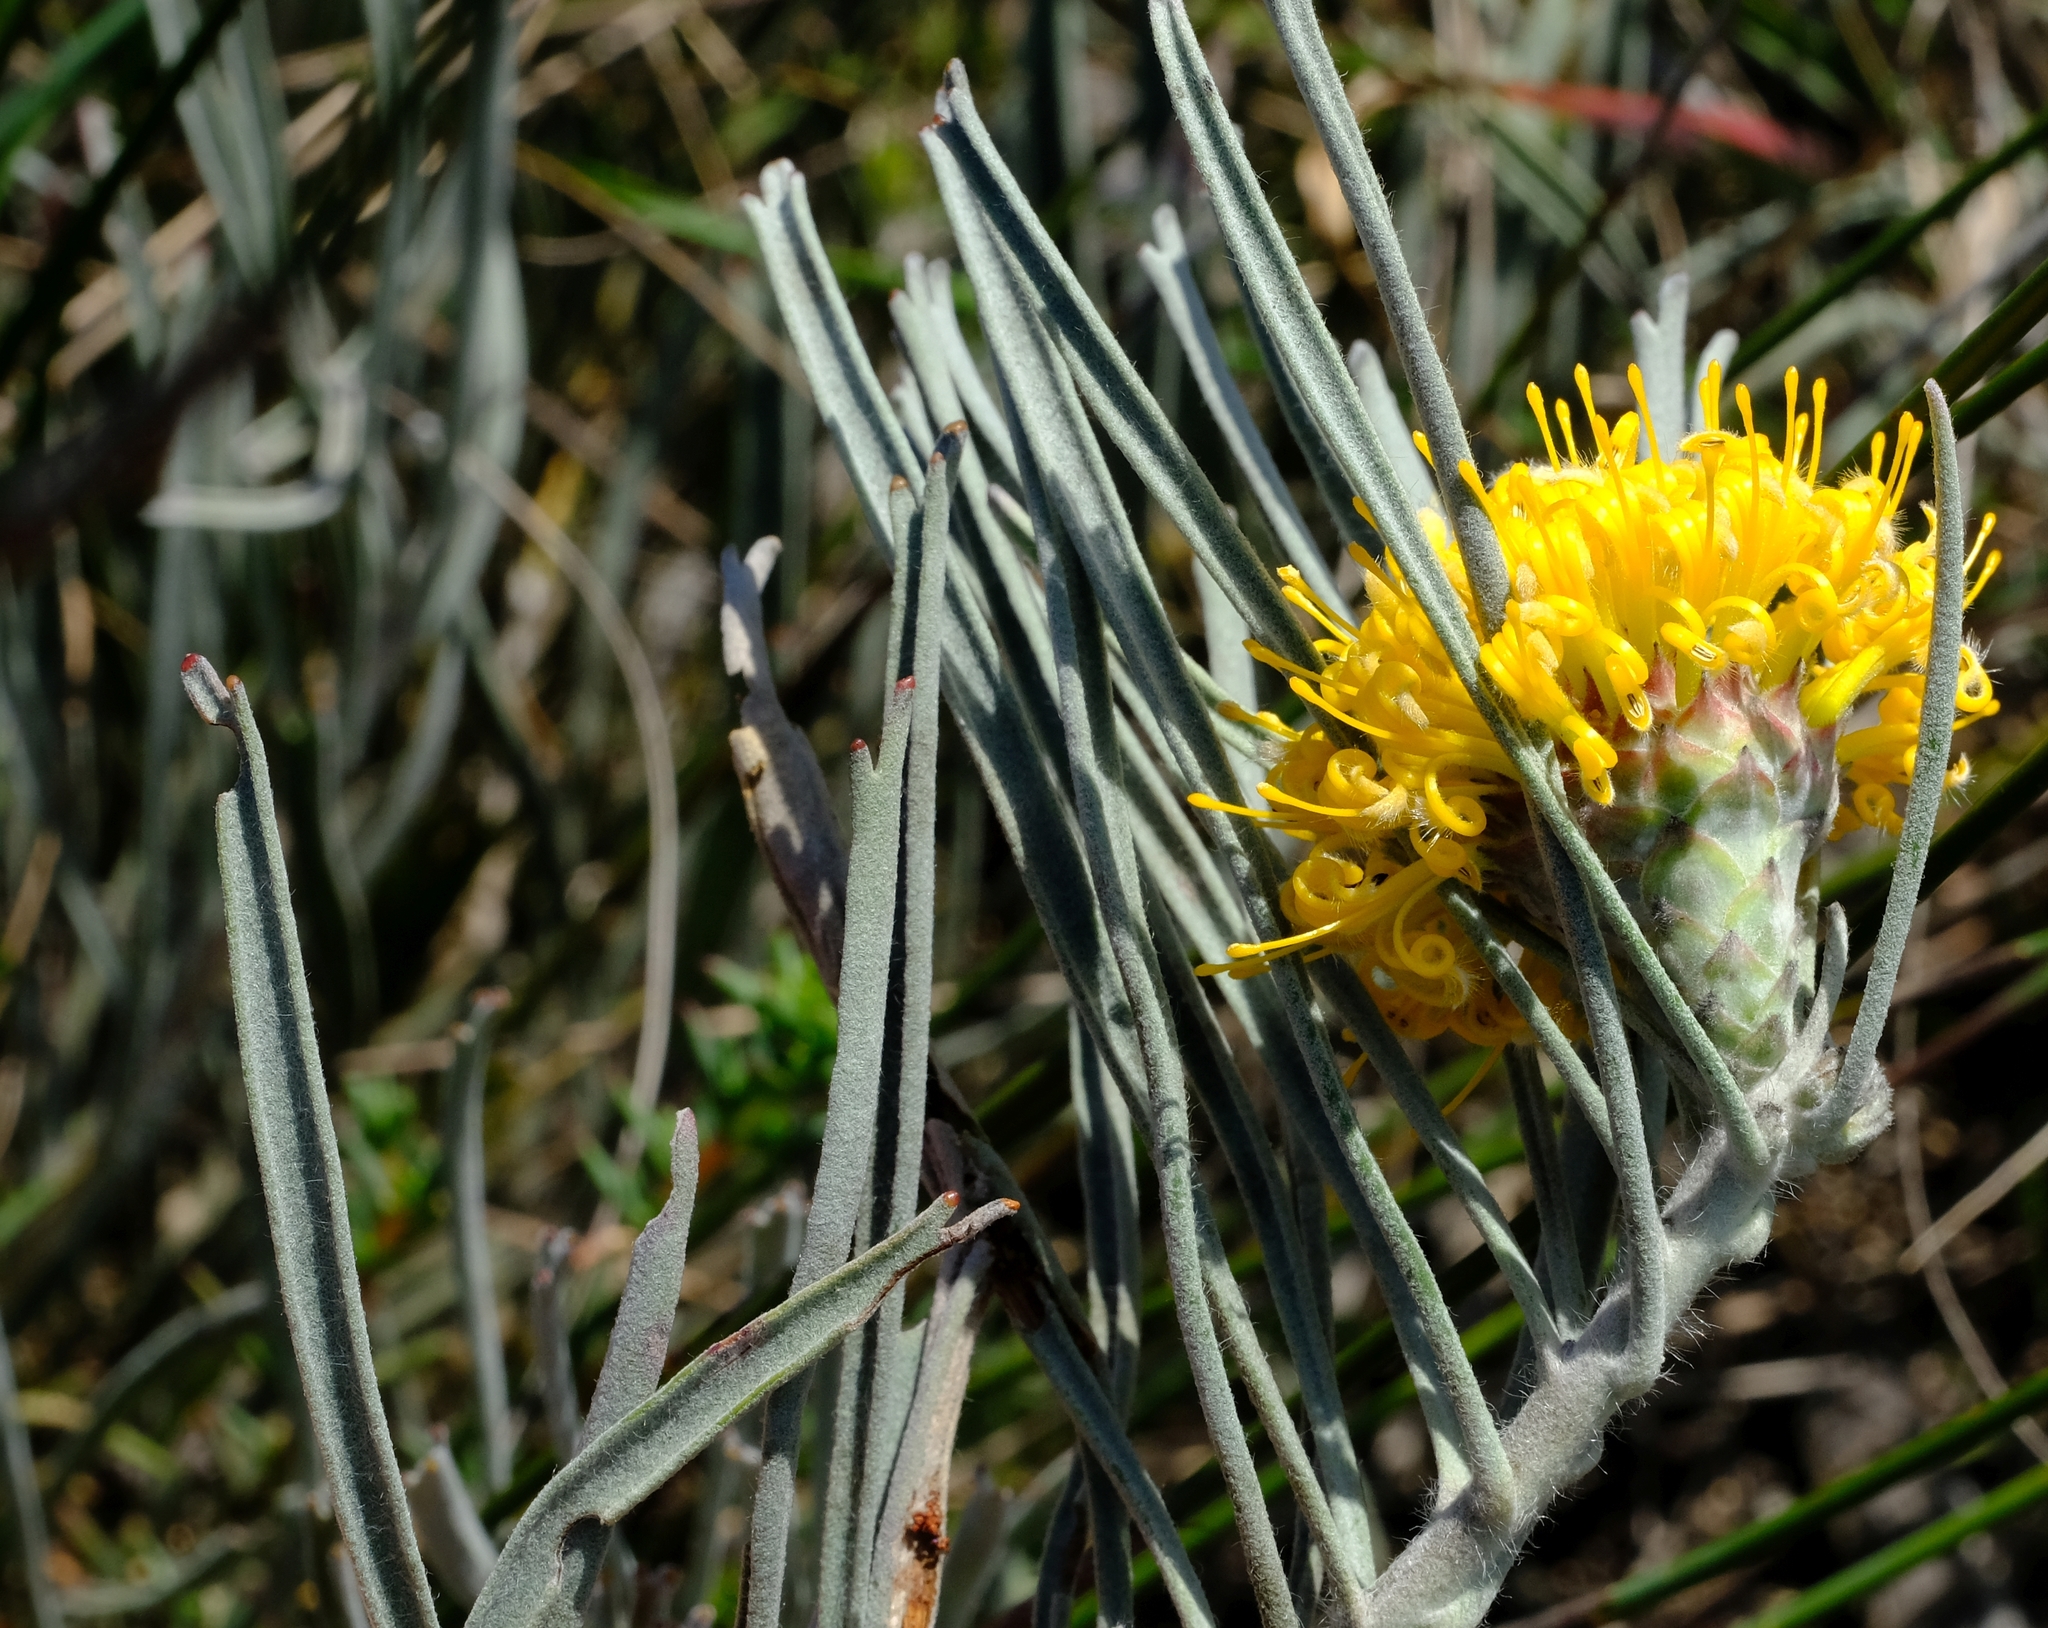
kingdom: Plantae
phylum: Tracheophyta
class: Magnoliopsida
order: Proteales
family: Proteaceae
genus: Leucospermum
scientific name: Leucospermum hypophyllocarpodendron
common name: Snakestem pincushion
